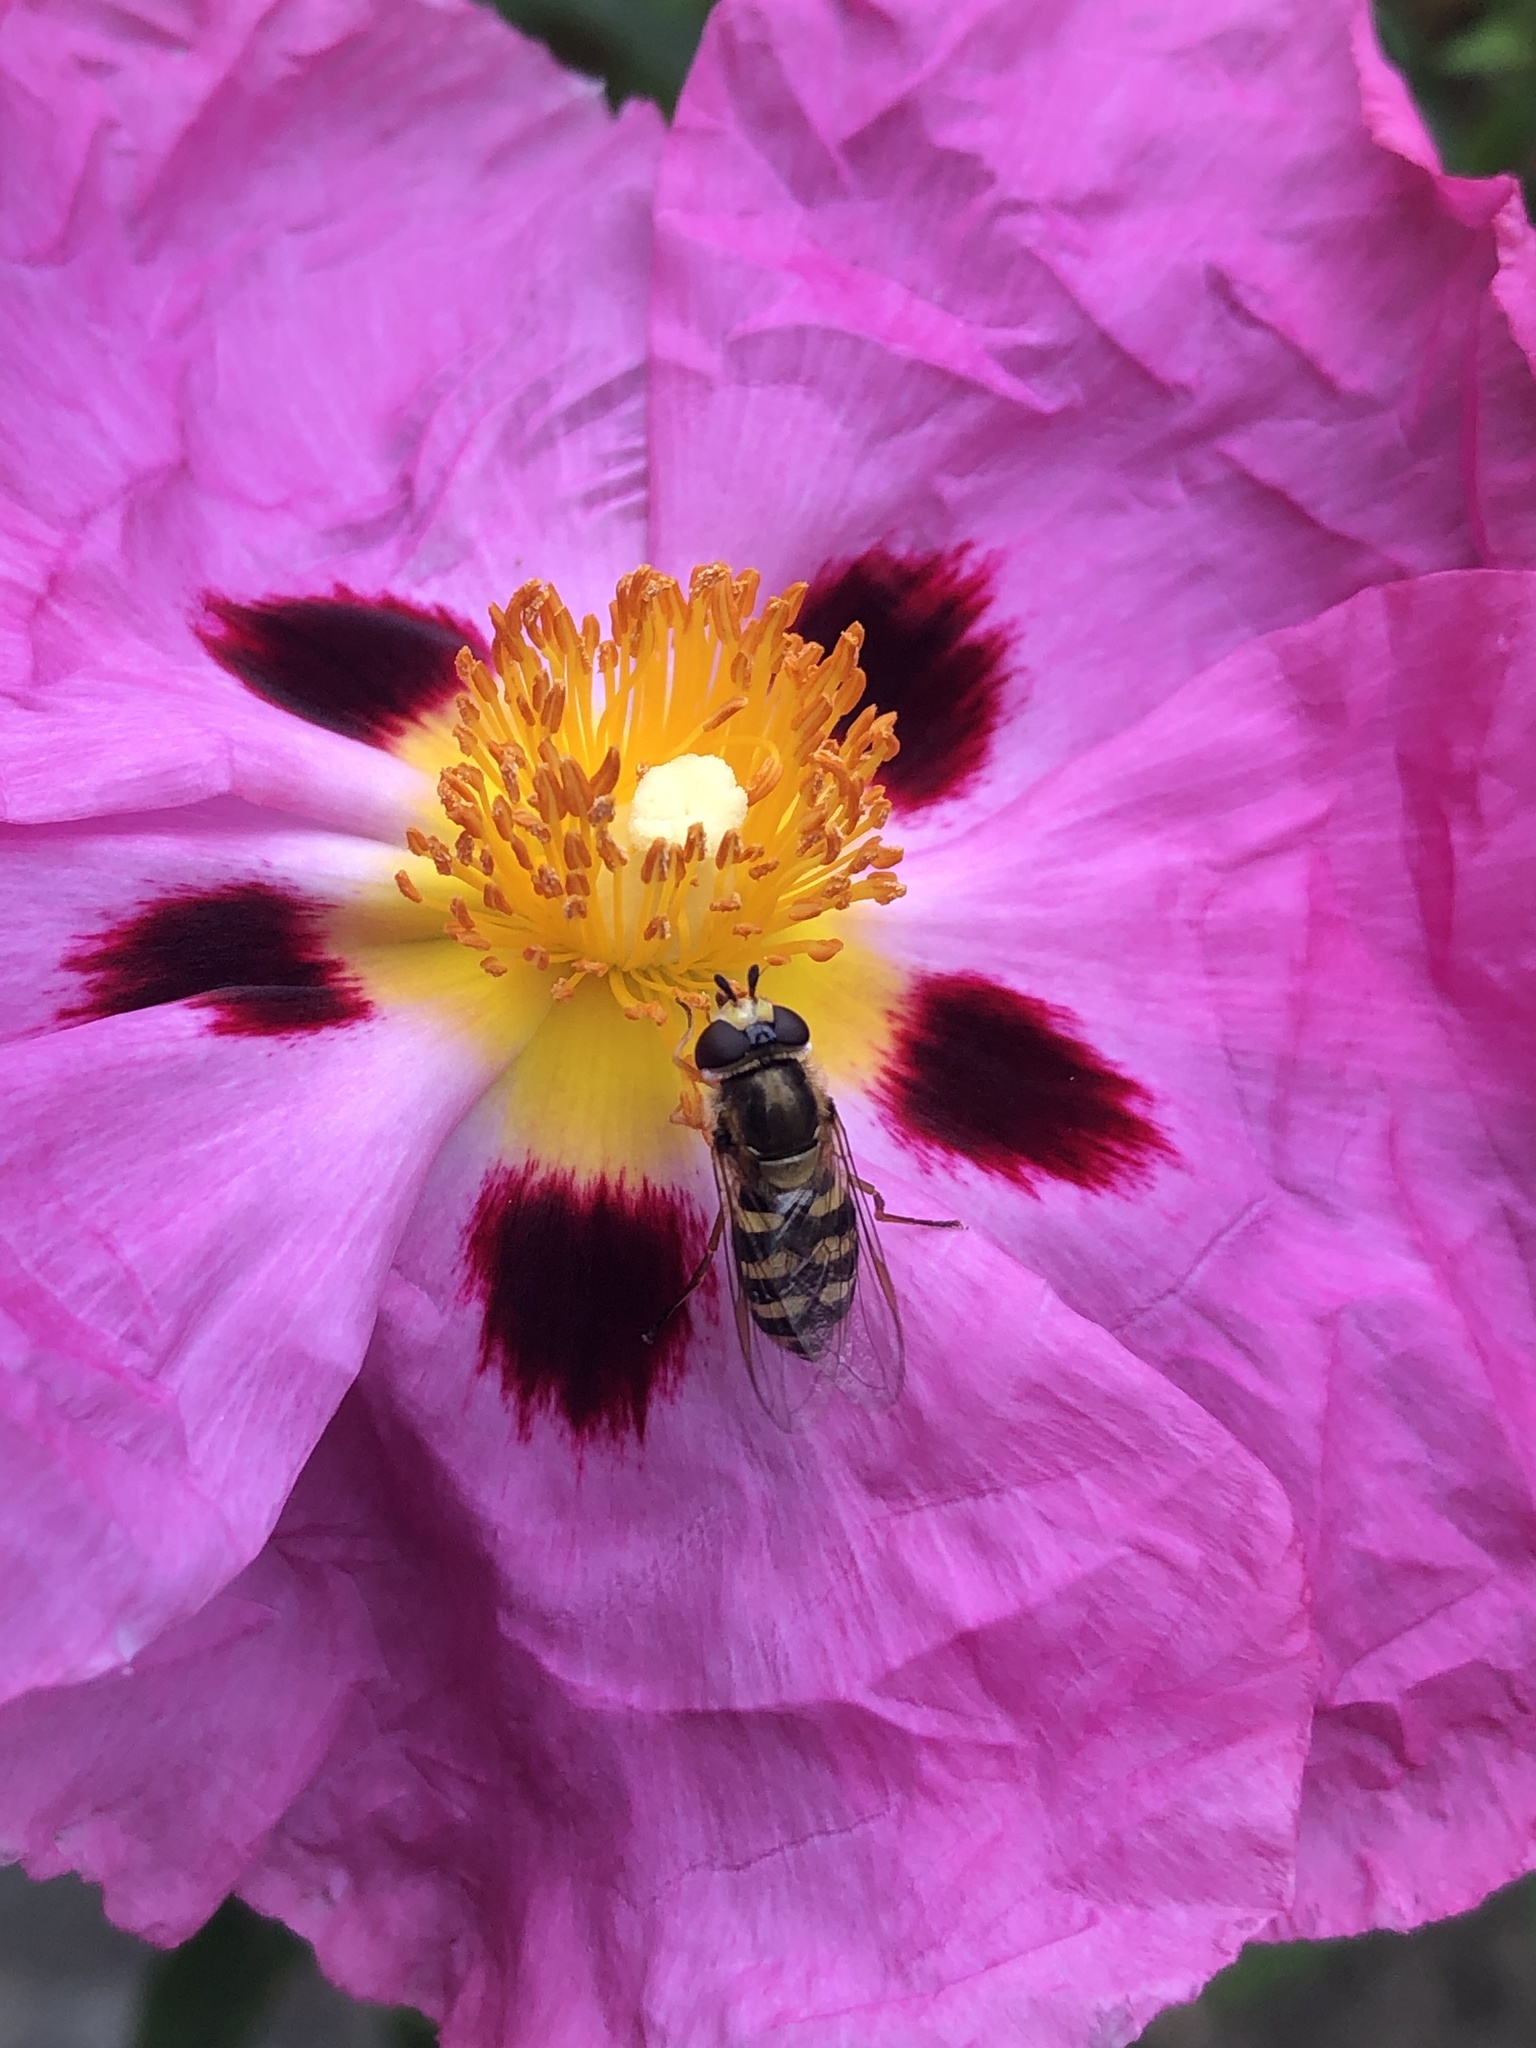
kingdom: Animalia
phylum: Arthropoda
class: Insecta
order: Diptera
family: Syrphidae
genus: Eupeodes
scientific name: Eupeodes corollae
